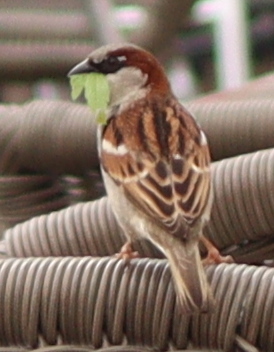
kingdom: Animalia
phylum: Chordata
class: Aves
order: Passeriformes
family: Passeridae
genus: Passer
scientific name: Passer domesticus
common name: House sparrow
